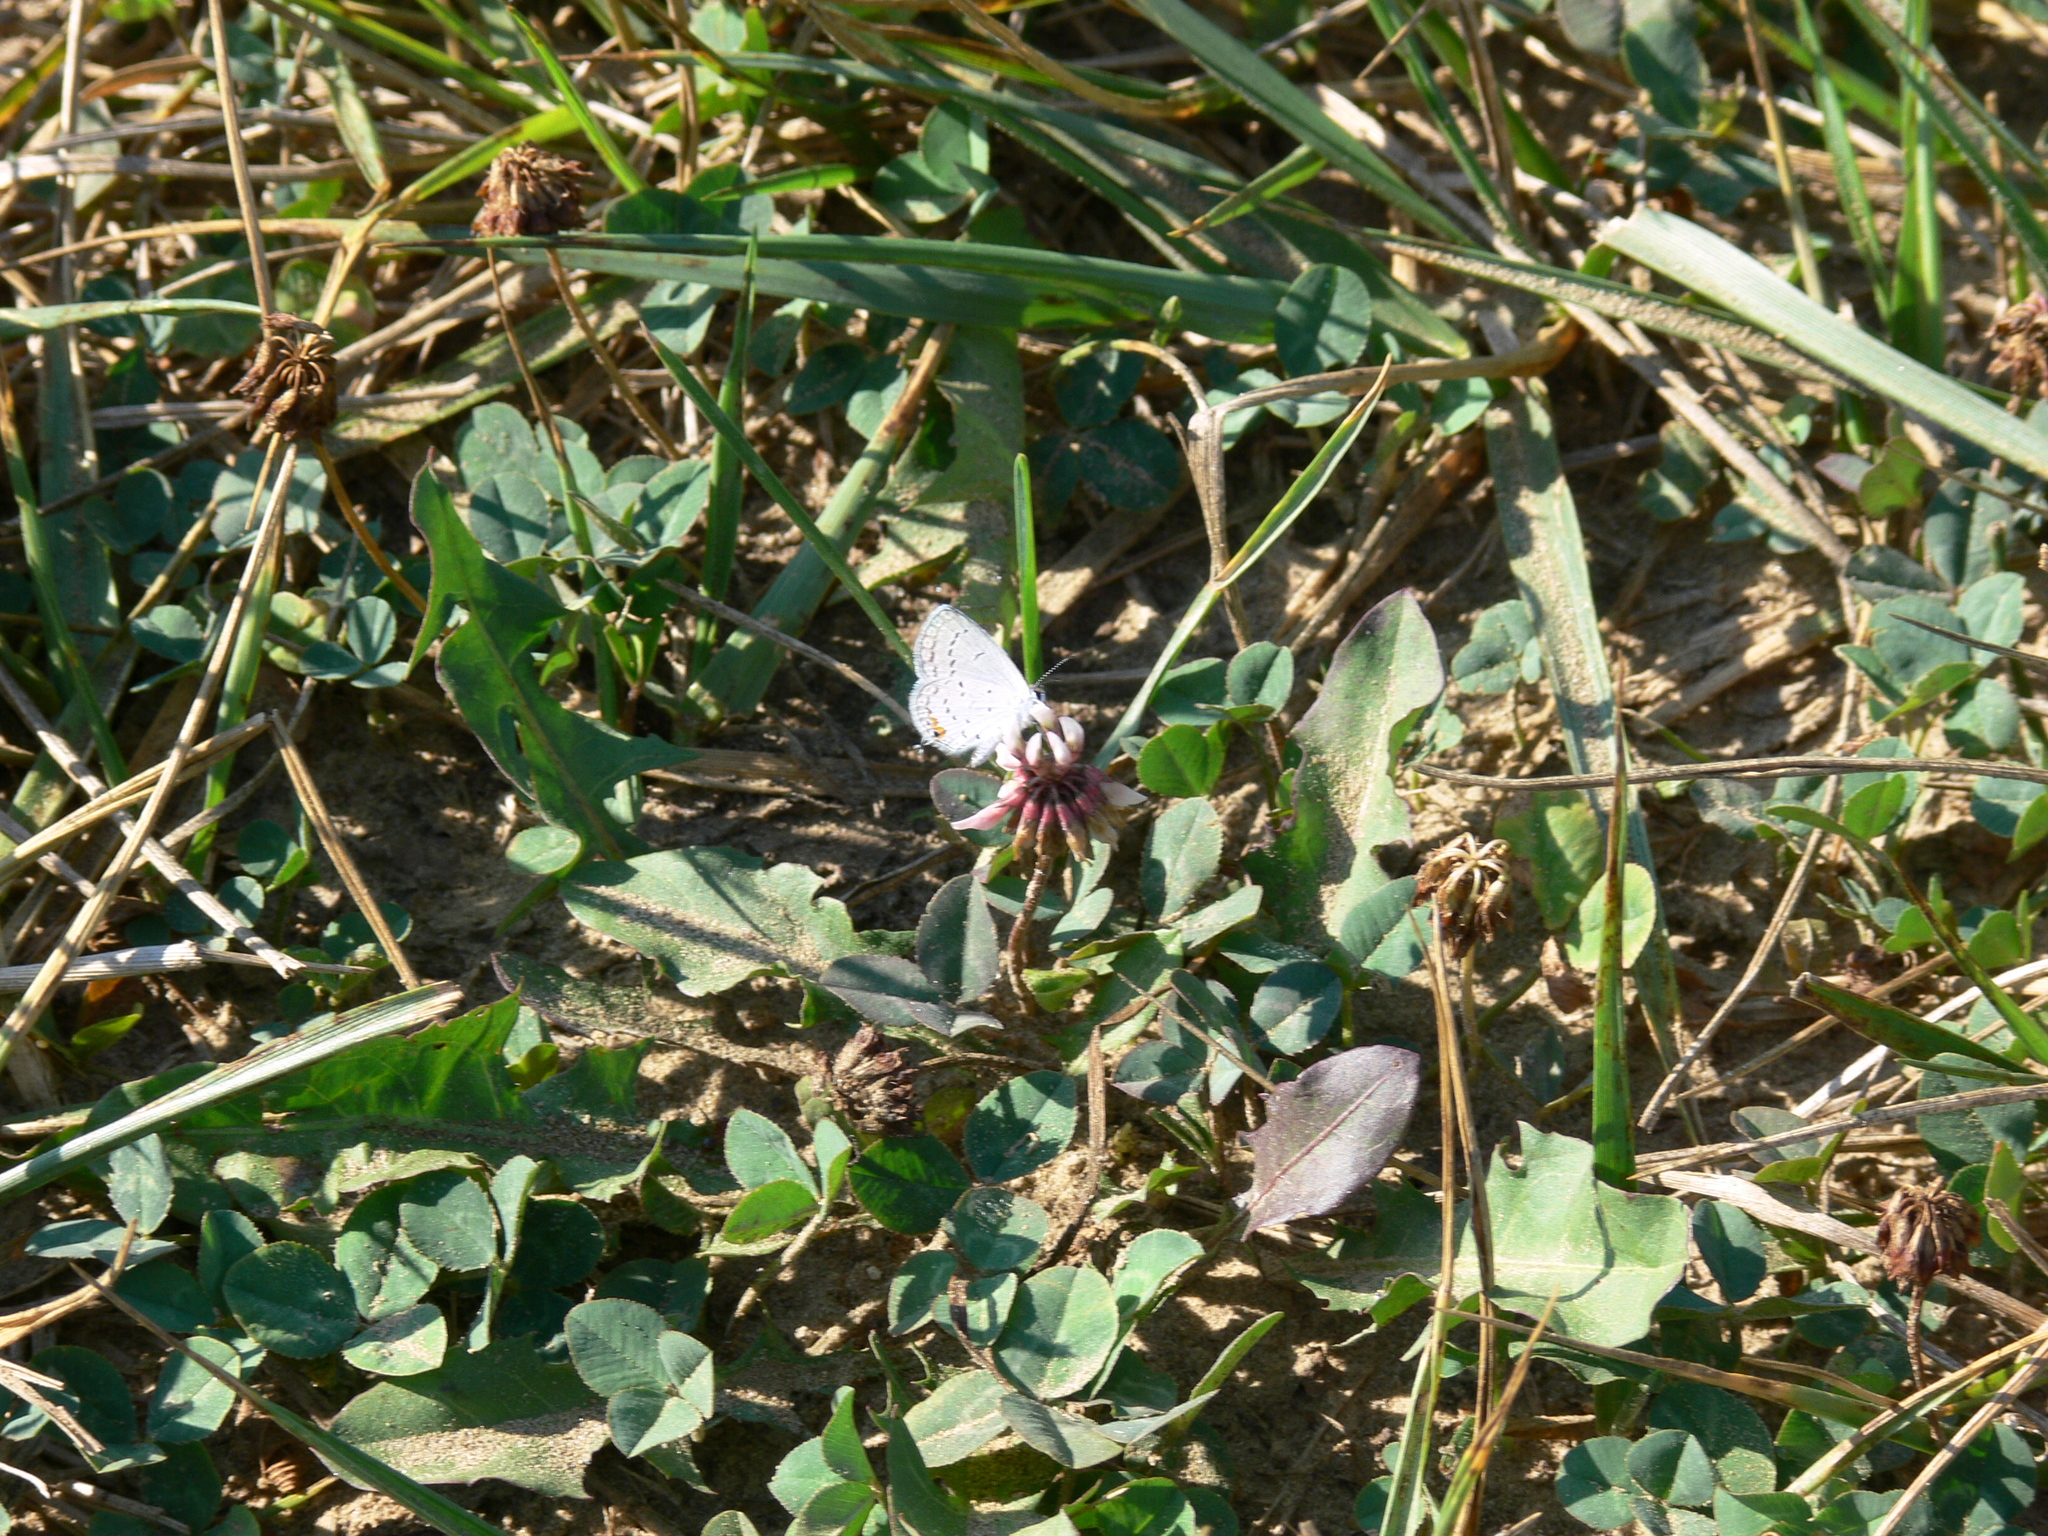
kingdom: Animalia
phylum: Arthropoda
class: Insecta
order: Lepidoptera
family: Lycaenidae
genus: Elkalyce
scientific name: Elkalyce comyntas
